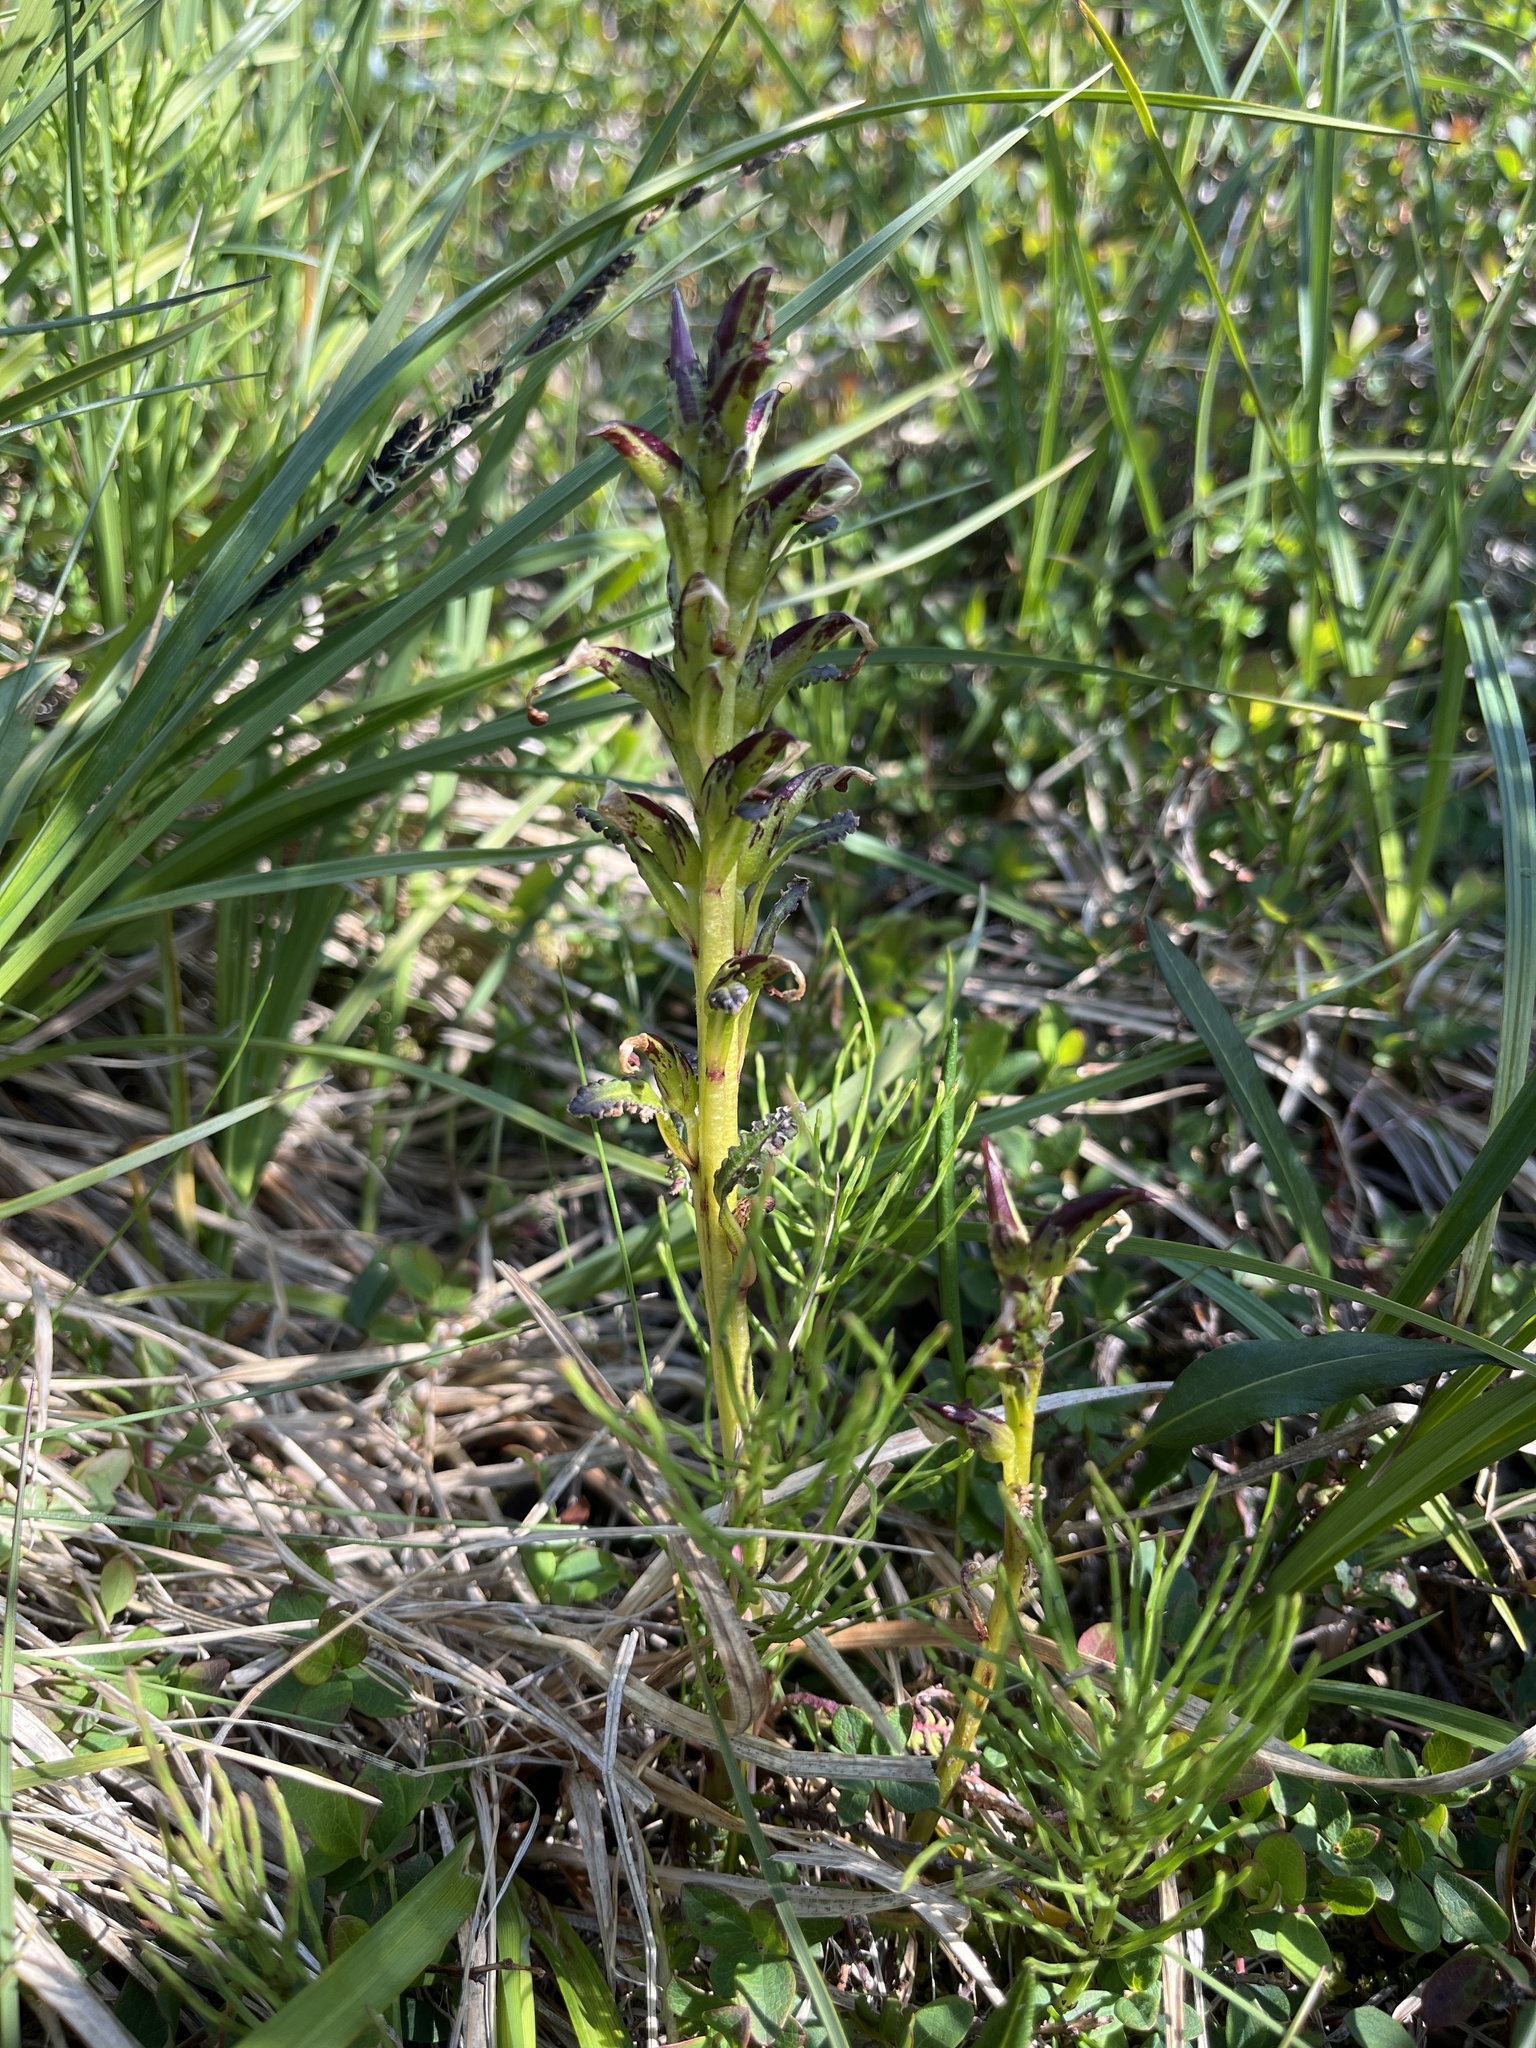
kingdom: Plantae
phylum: Tracheophyta
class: Magnoliopsida
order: Lamiales
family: Orobanchaceae
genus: Pedicularis
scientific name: Pedicularis flammea
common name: Flame-coloured lousewort
